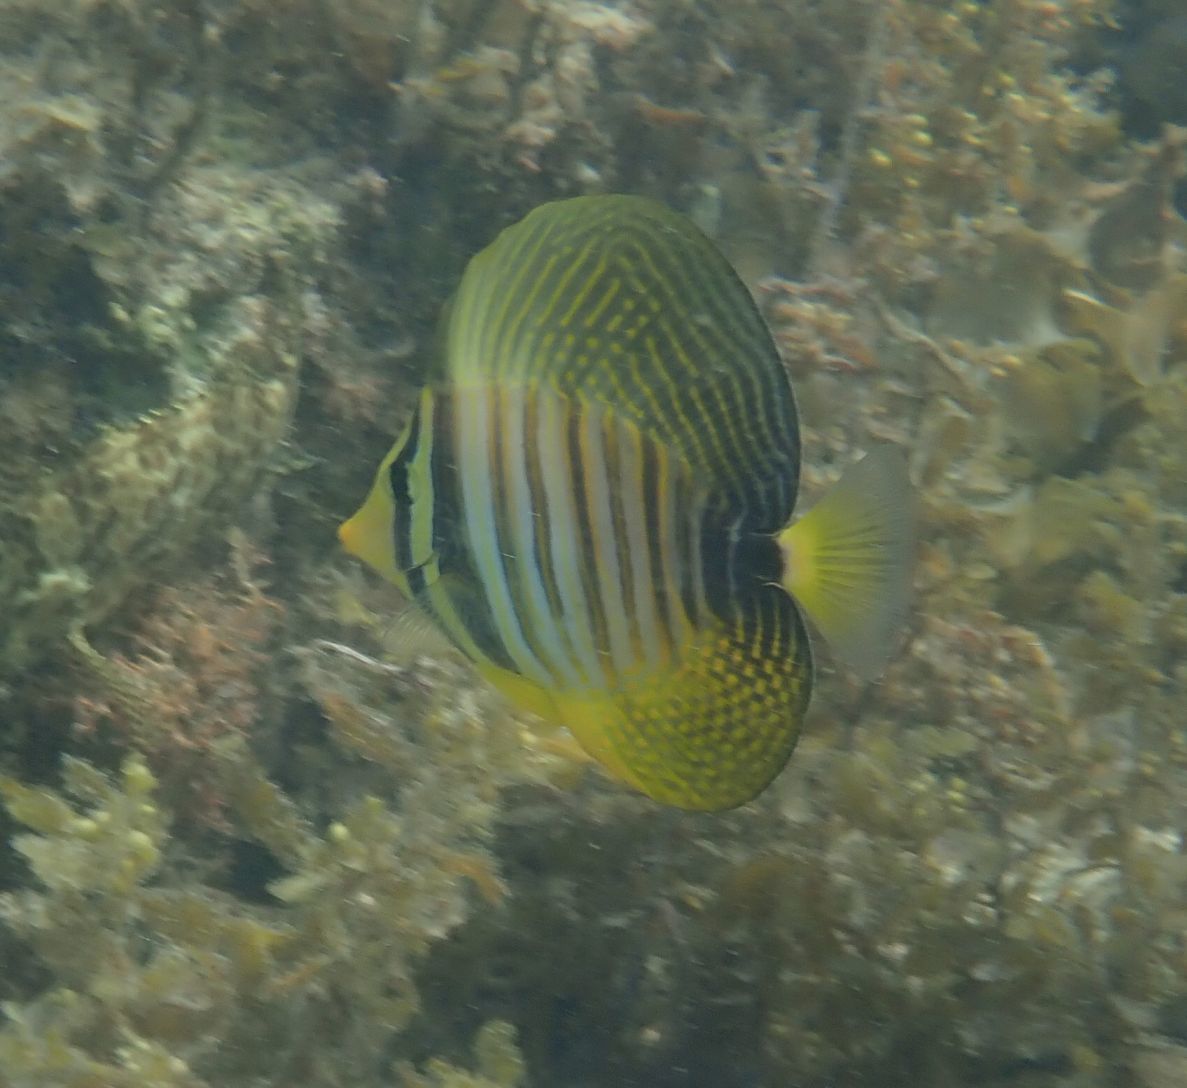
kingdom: Animalia
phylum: Chordata
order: Perciformes
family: Acanthuridae
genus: Zebrasoma
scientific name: Zebrasoma desjardinii
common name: Desjardin's sailfin tang
